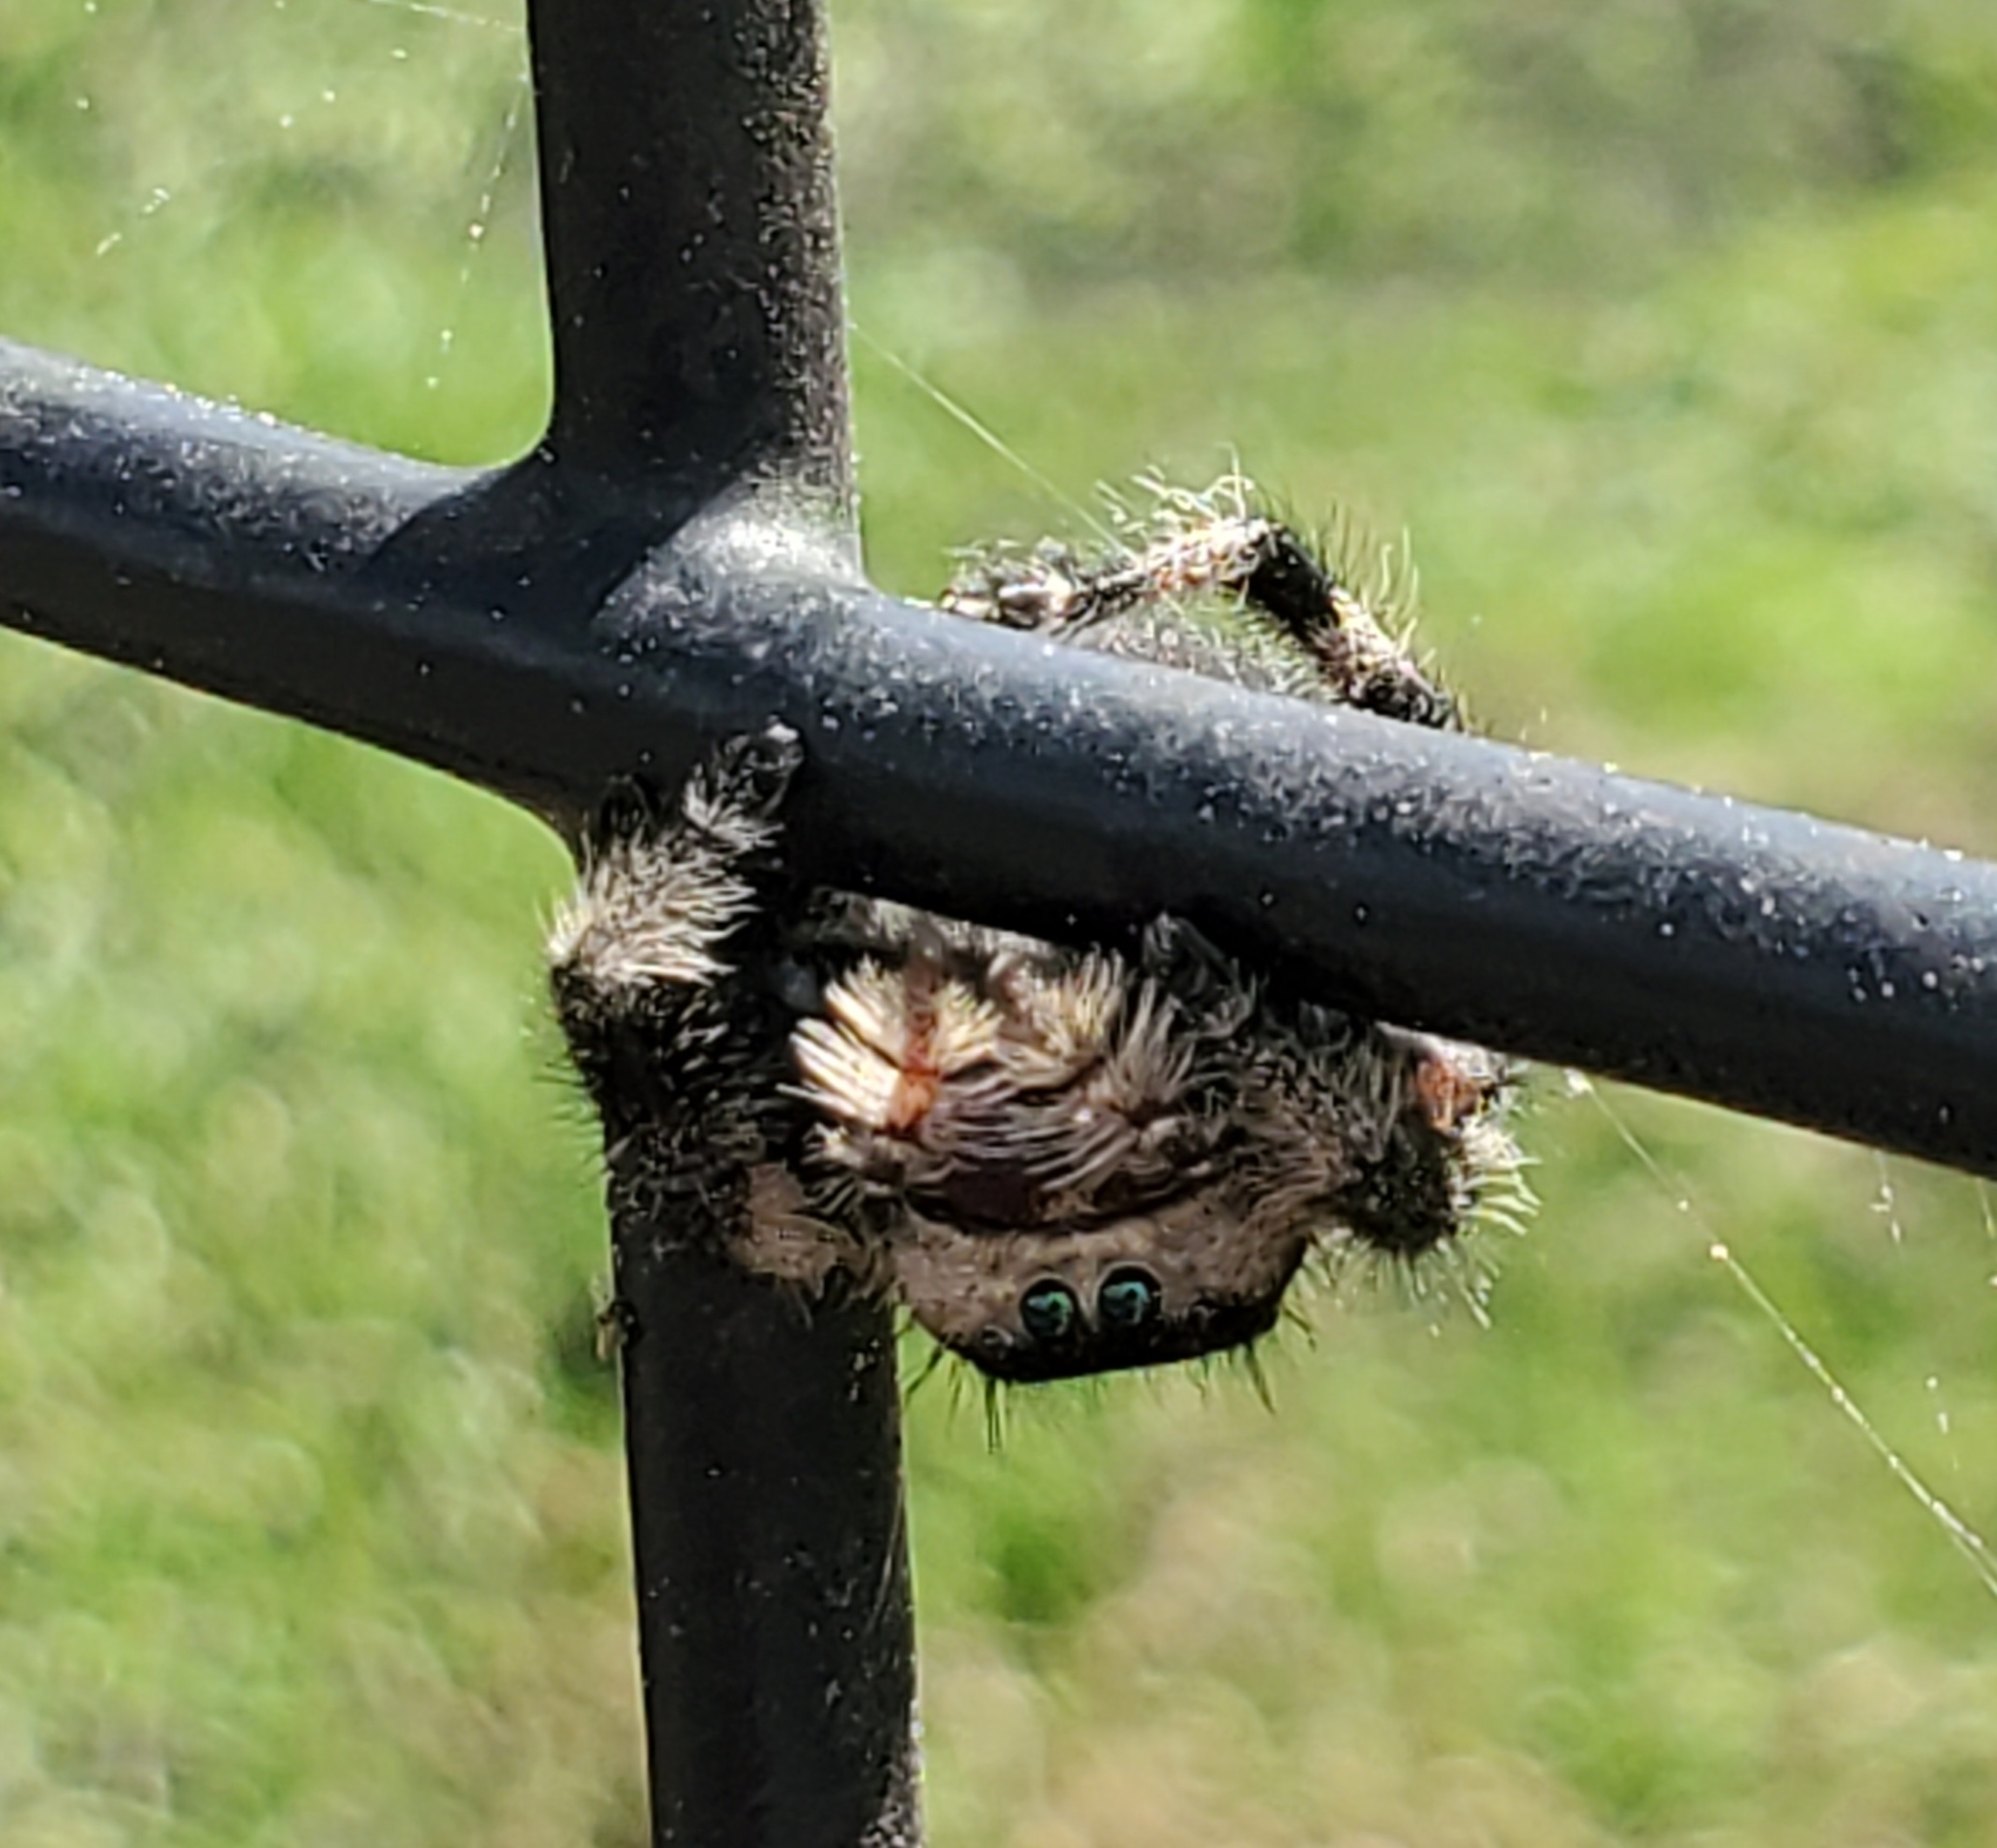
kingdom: Animalia
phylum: Arthropoda
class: Arachnida
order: Araneae
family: Salticidae
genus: Phidippus
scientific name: Phidippus regius
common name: Regal jumper
